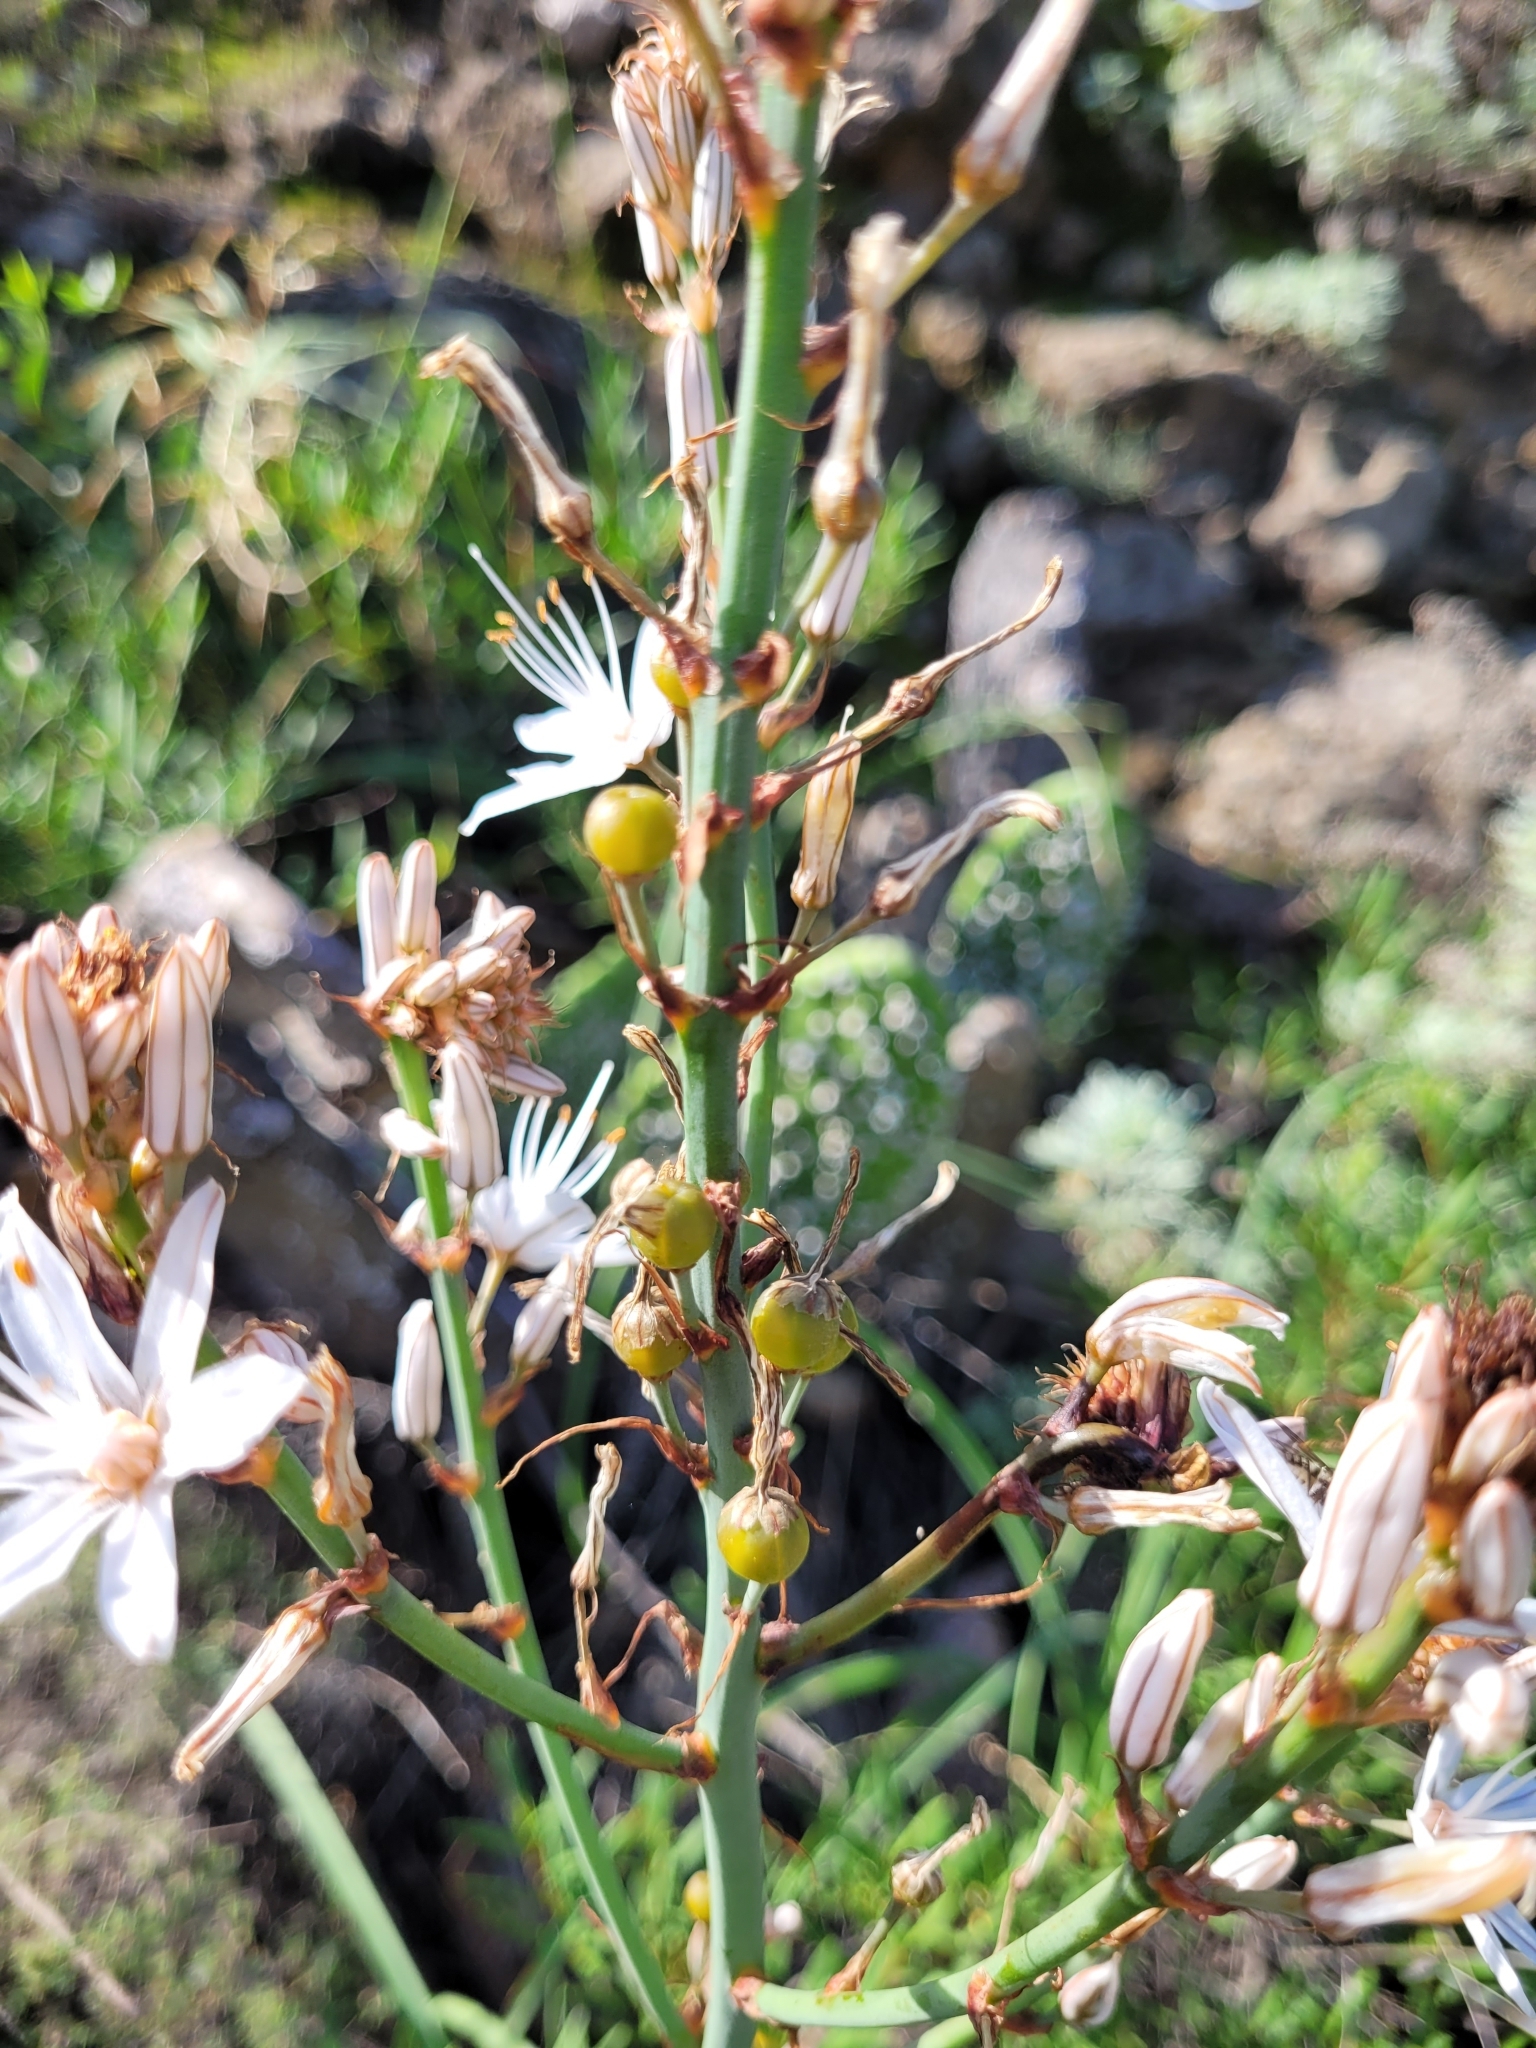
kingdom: Plantae
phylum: Tracheophyta
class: Liliopsida
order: Asparagales
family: Asphodelaceae
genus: Asphodelus
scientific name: Asphodelus ramosus
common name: Silverrod
